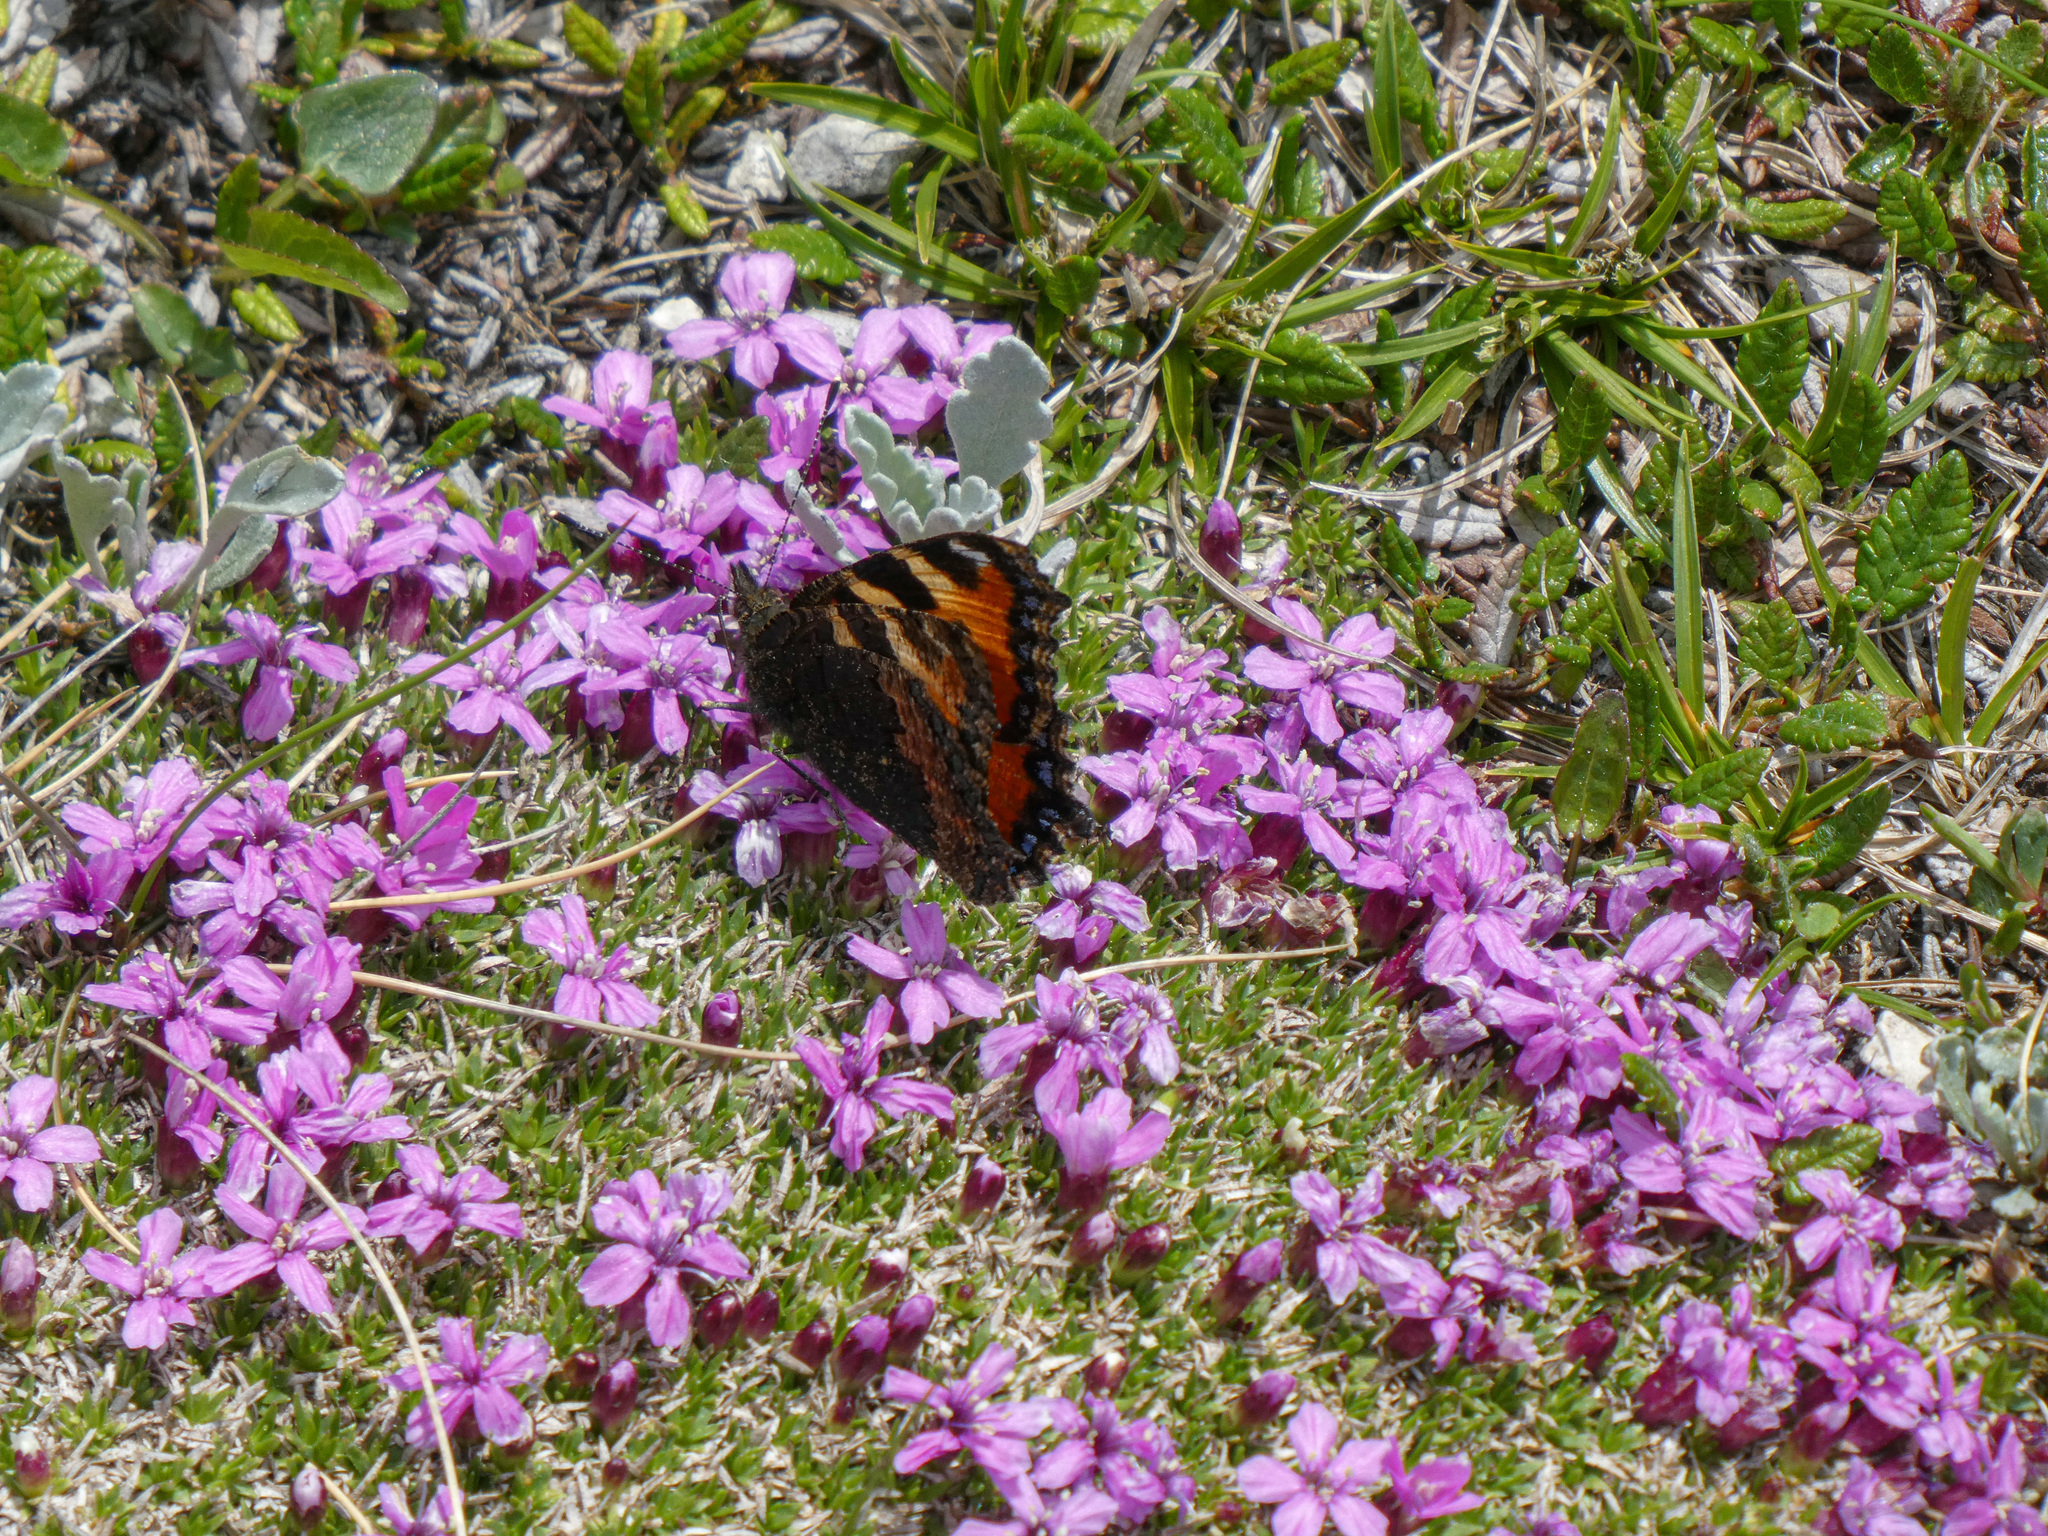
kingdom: Animalia
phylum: Arthropoda
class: Insecta
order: Lepidoptera
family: Nymphalidae
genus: Aglais
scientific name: Aglais urticae
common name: Small tortoiseshell
